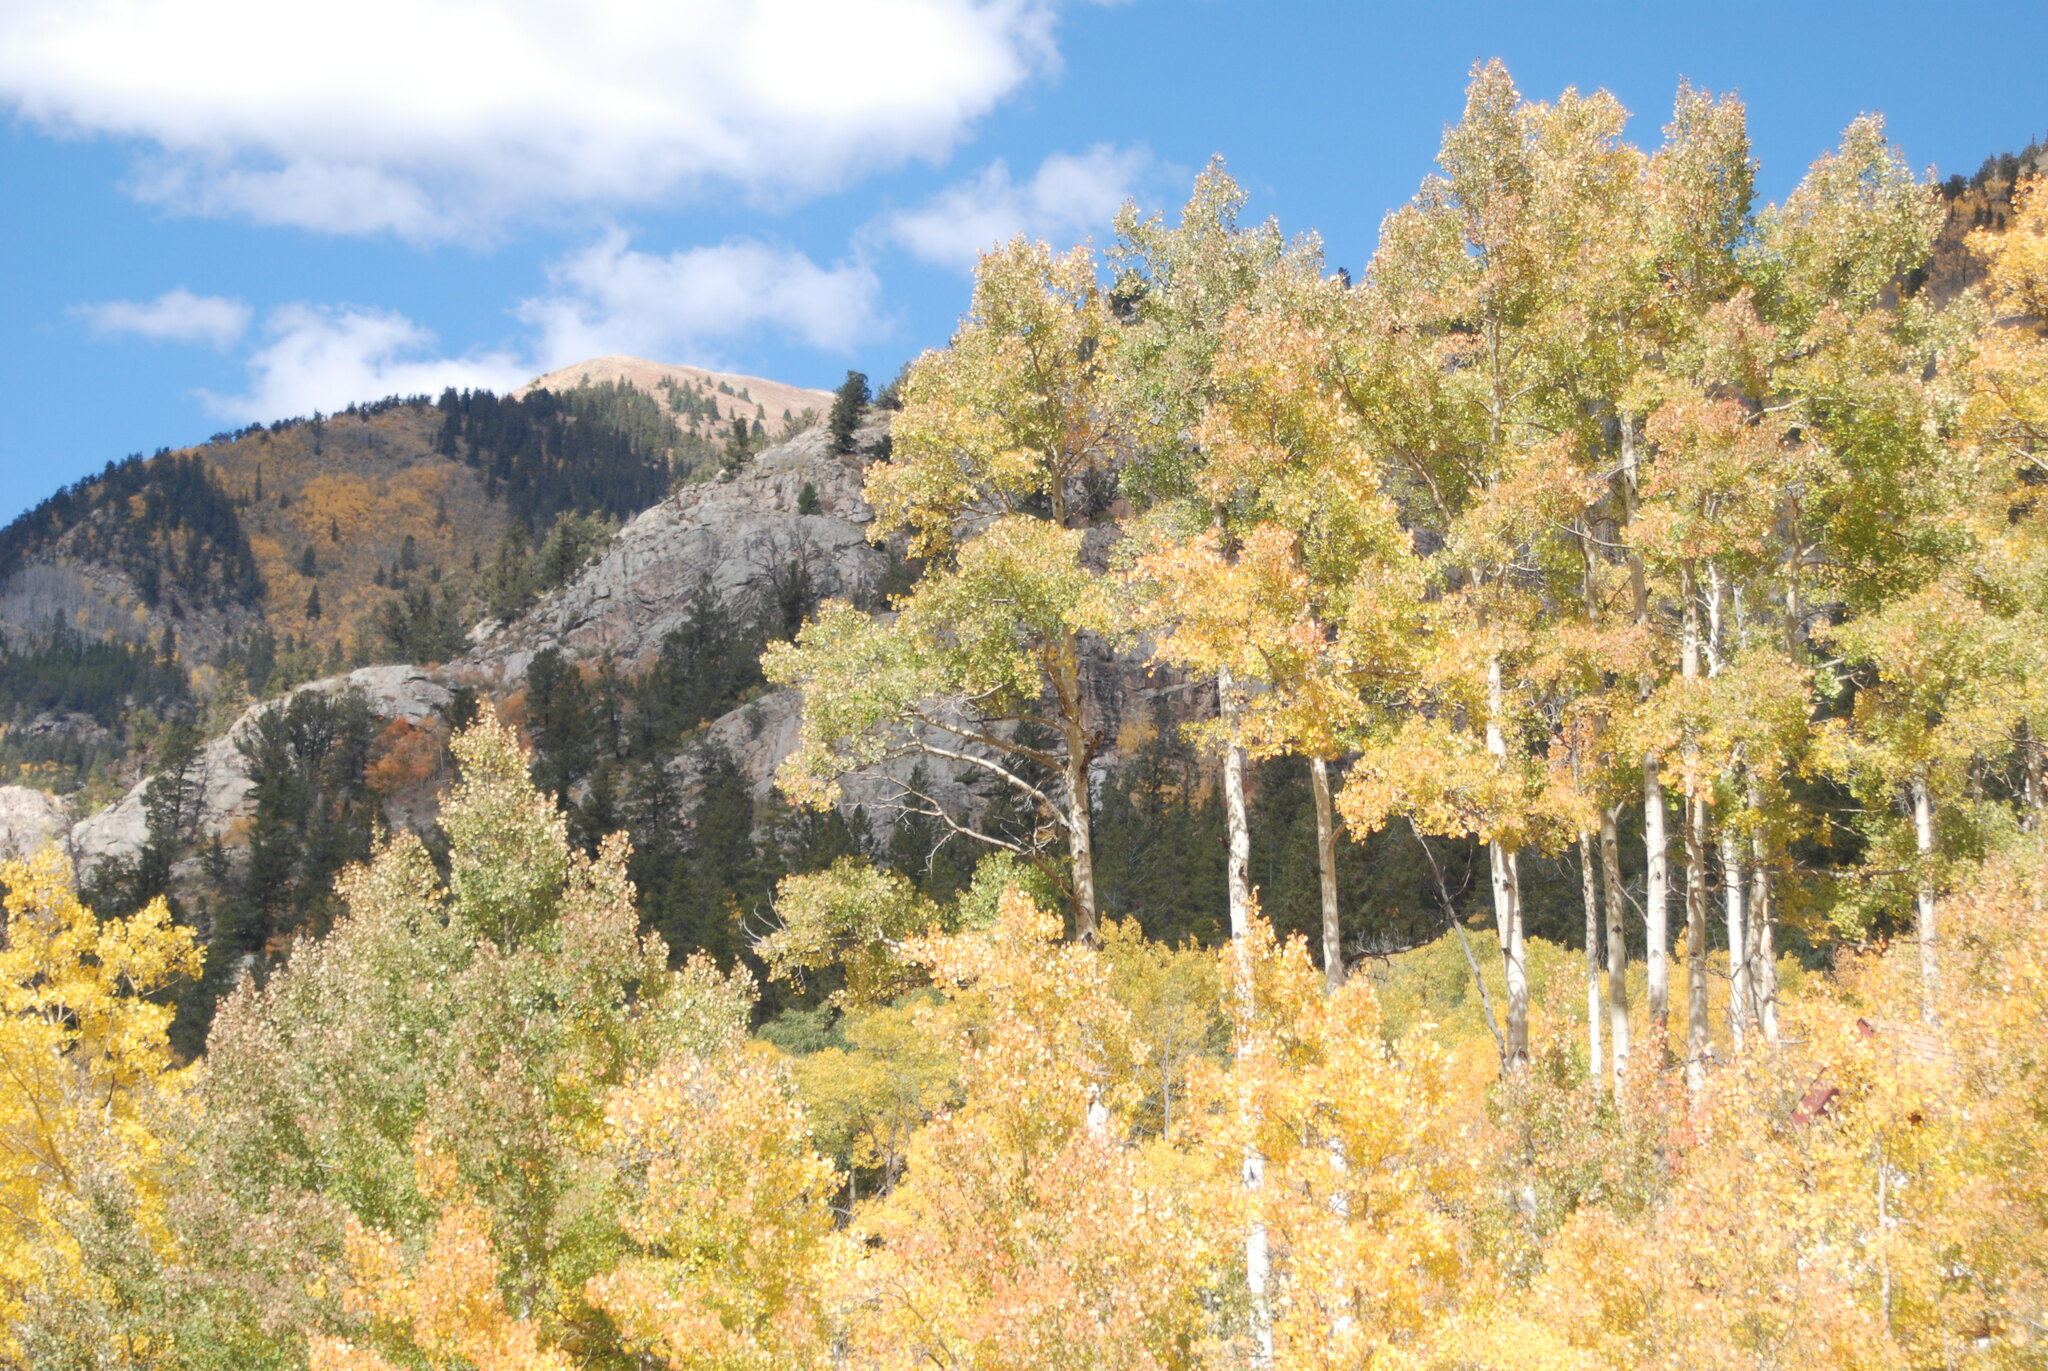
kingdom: Plantae
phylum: Tracheophyta
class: Magnoliopsida
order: Malpighiales
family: Salicaceae
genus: Populus
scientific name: Populus tremuloides
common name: Quaking aspen
